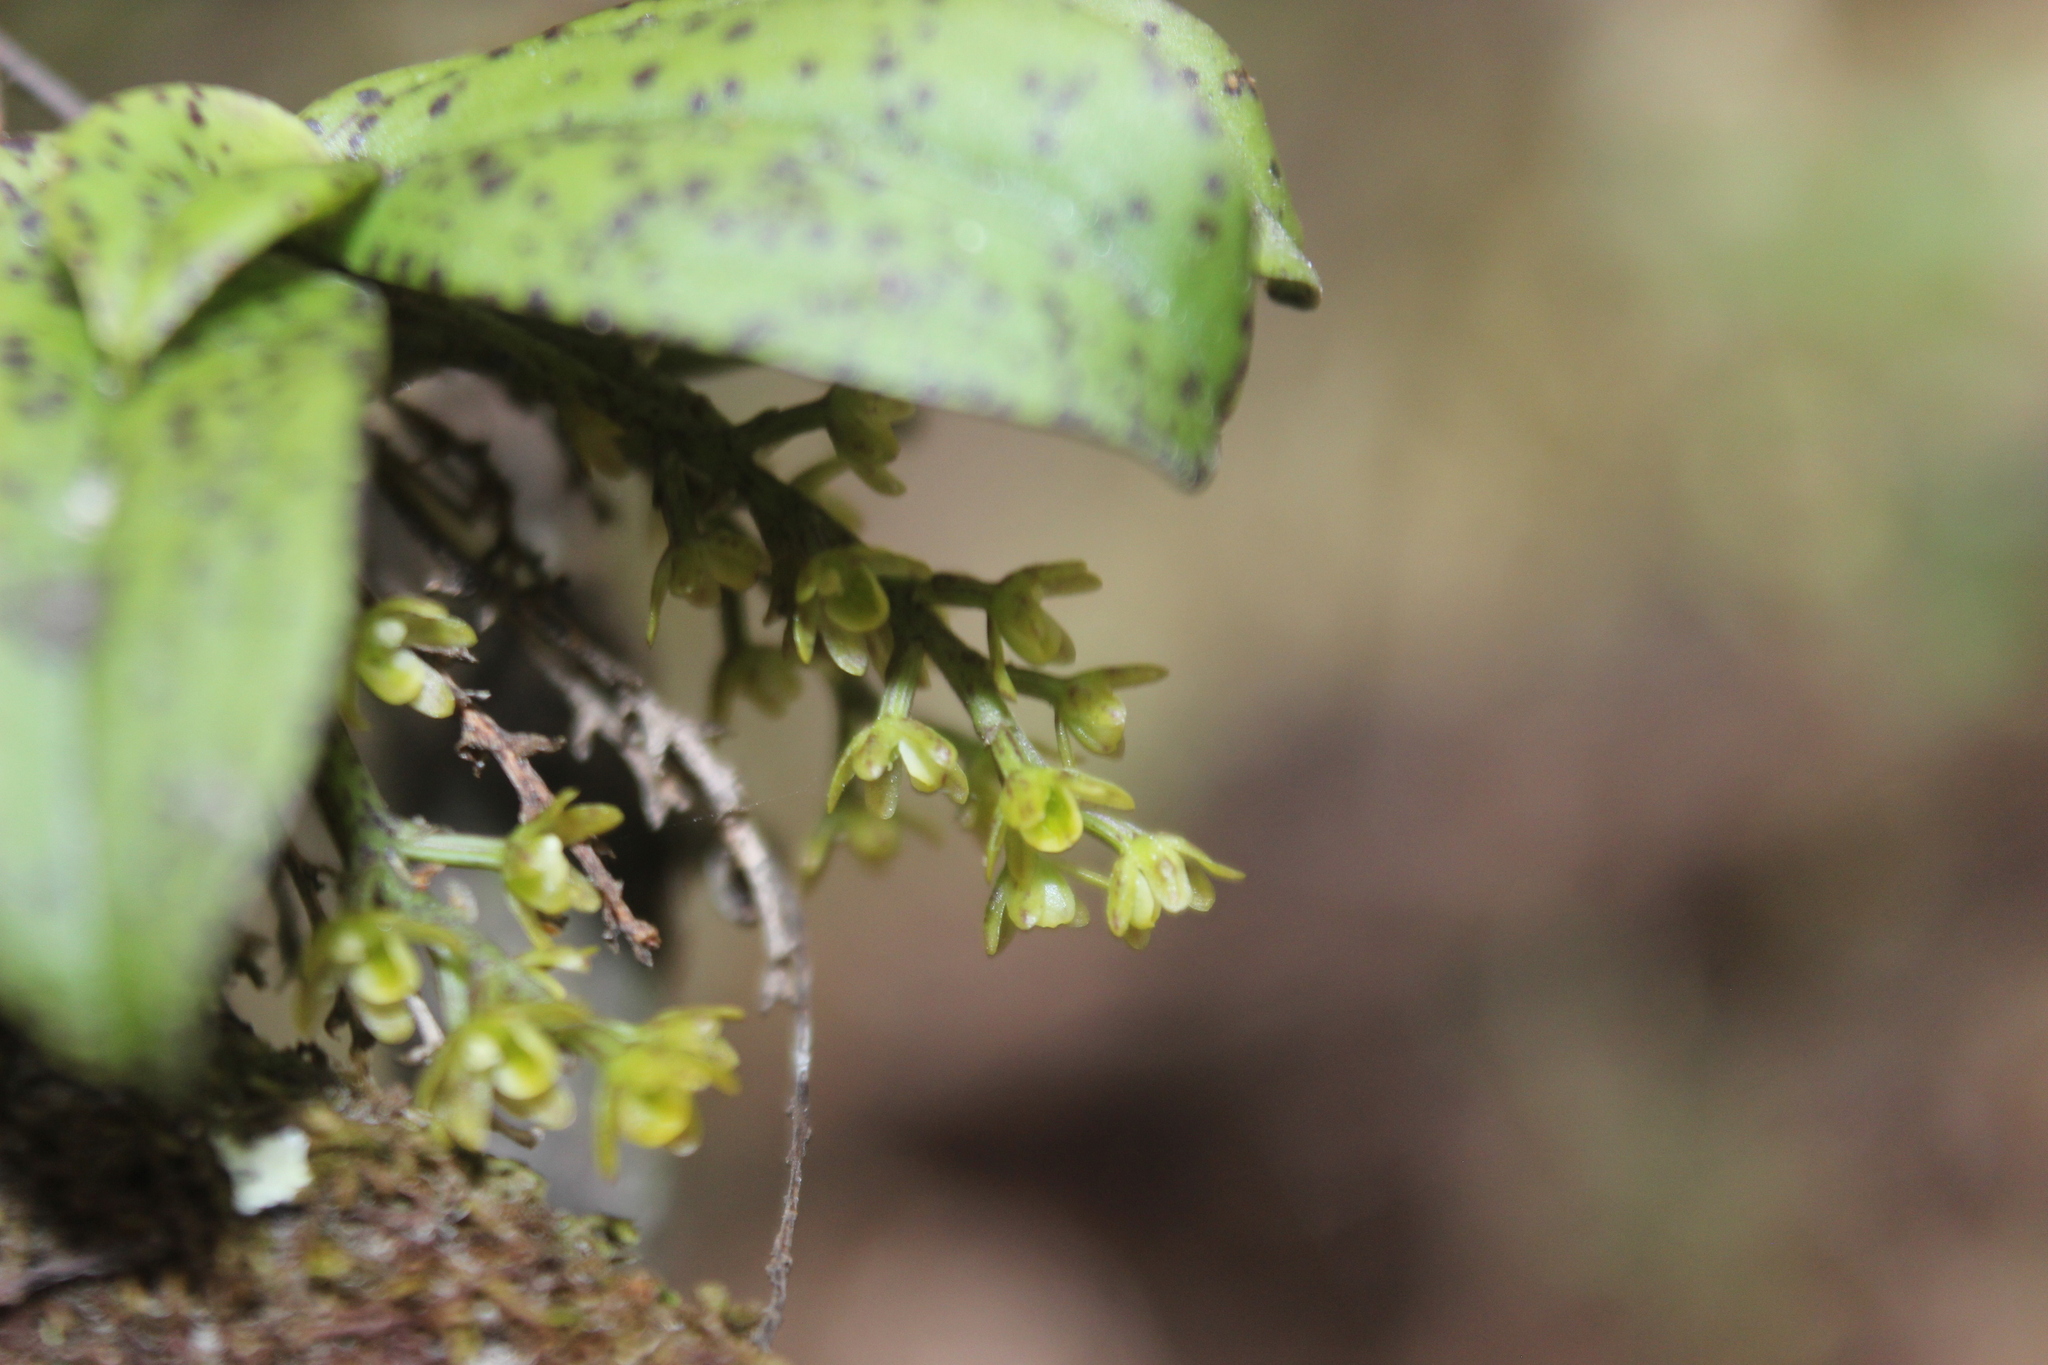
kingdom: Plantae
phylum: Tracheophyta
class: Liliopsida
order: Asparagales
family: Orchidaceae
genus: Drymoanthus
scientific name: Drymoanthus flavus
